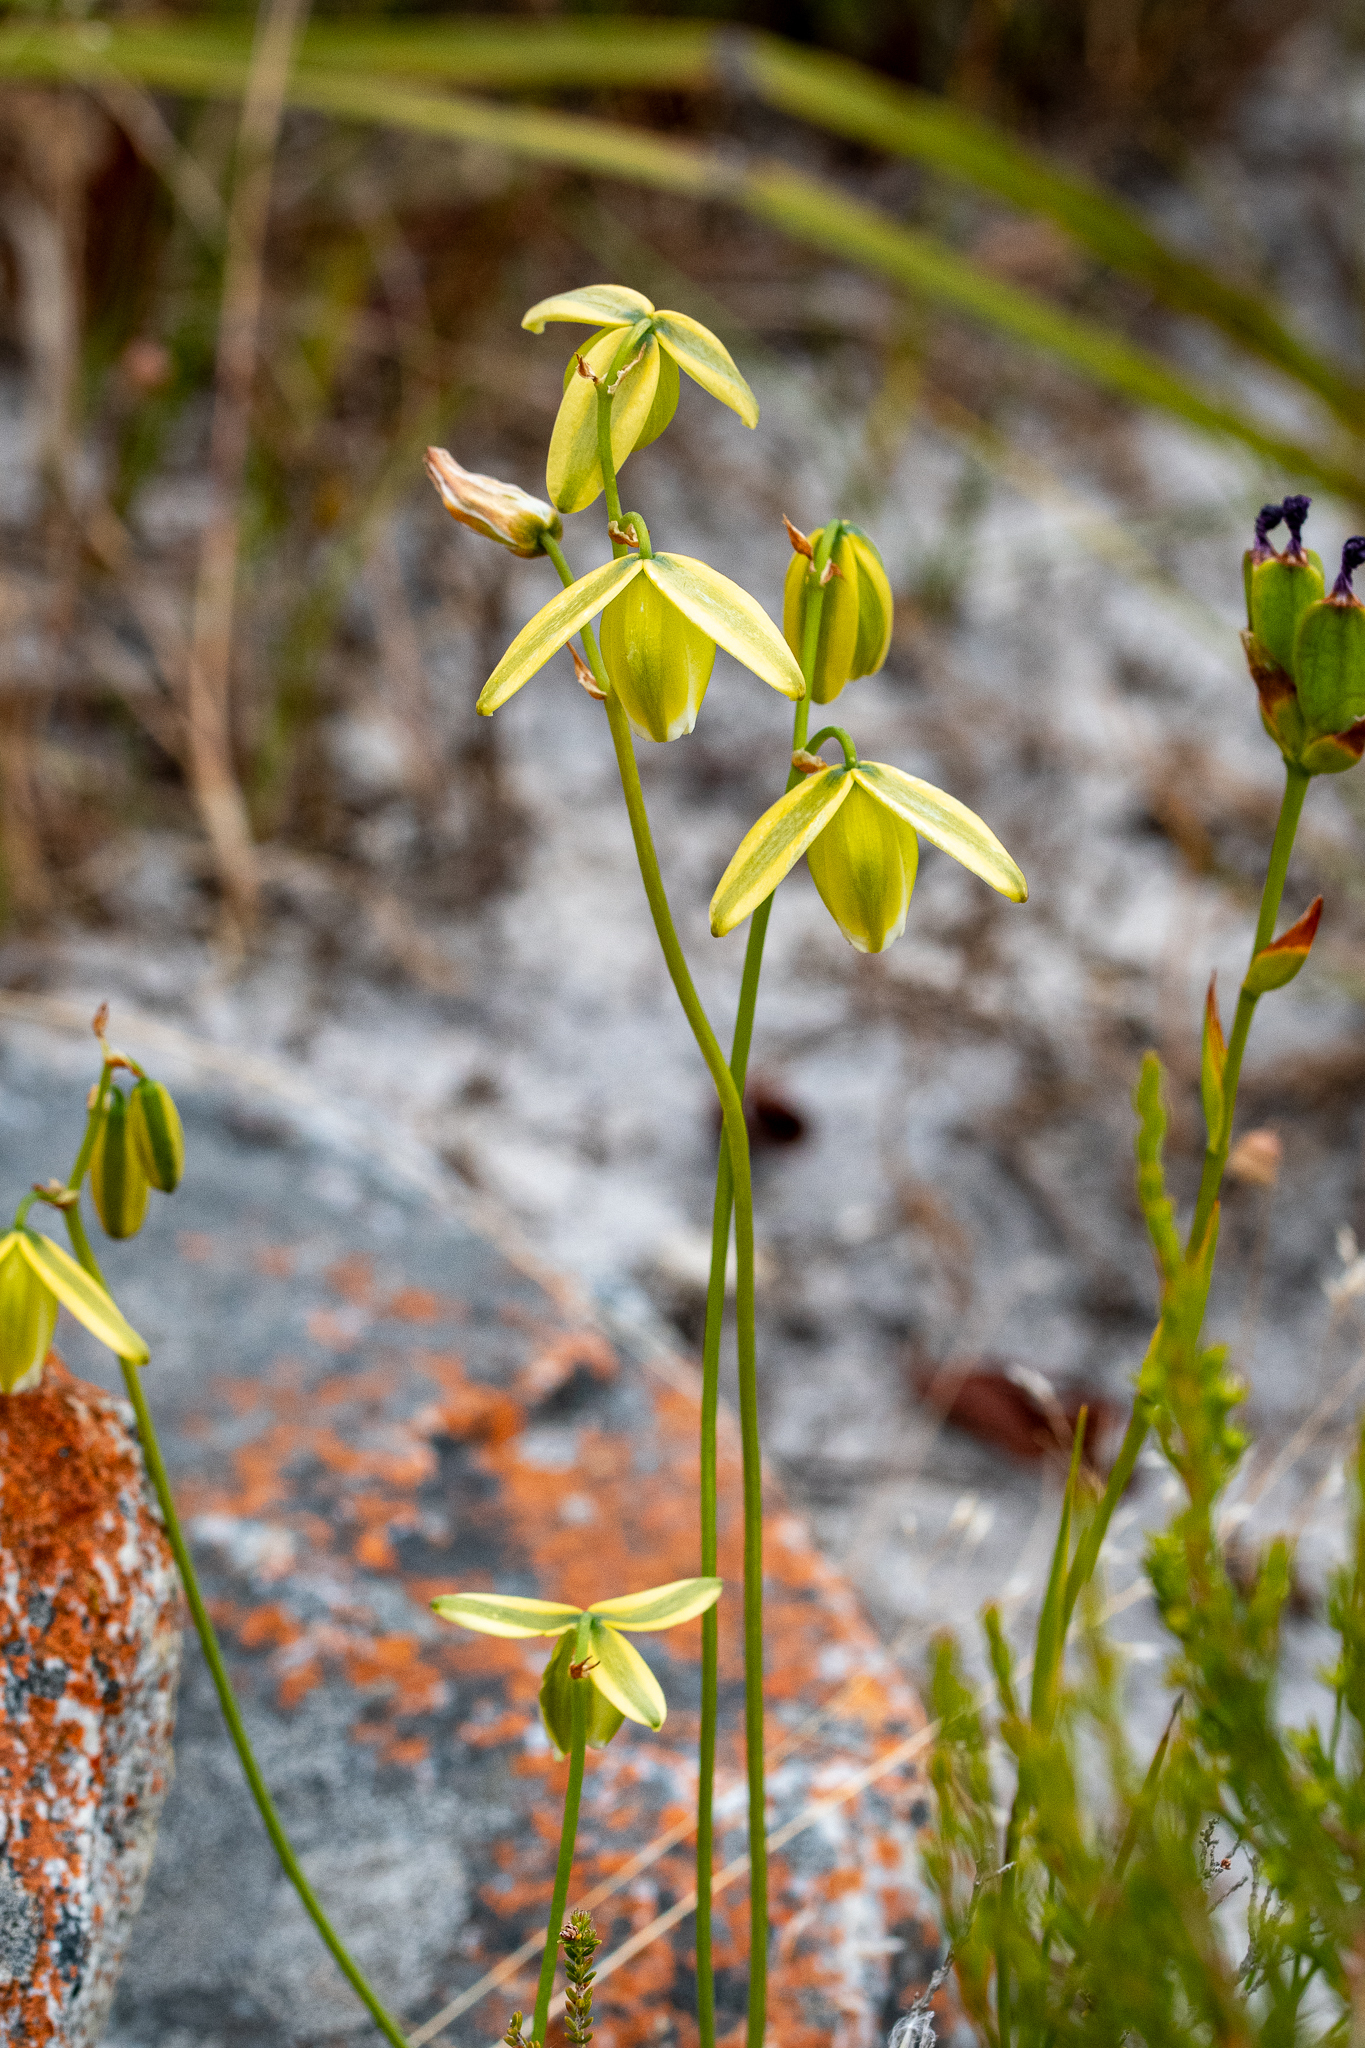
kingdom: Plantae
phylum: Tracheophyta
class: Liliopsida
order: Asparagales
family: Asparagaceae
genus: Albuca
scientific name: Albuca cooperi
